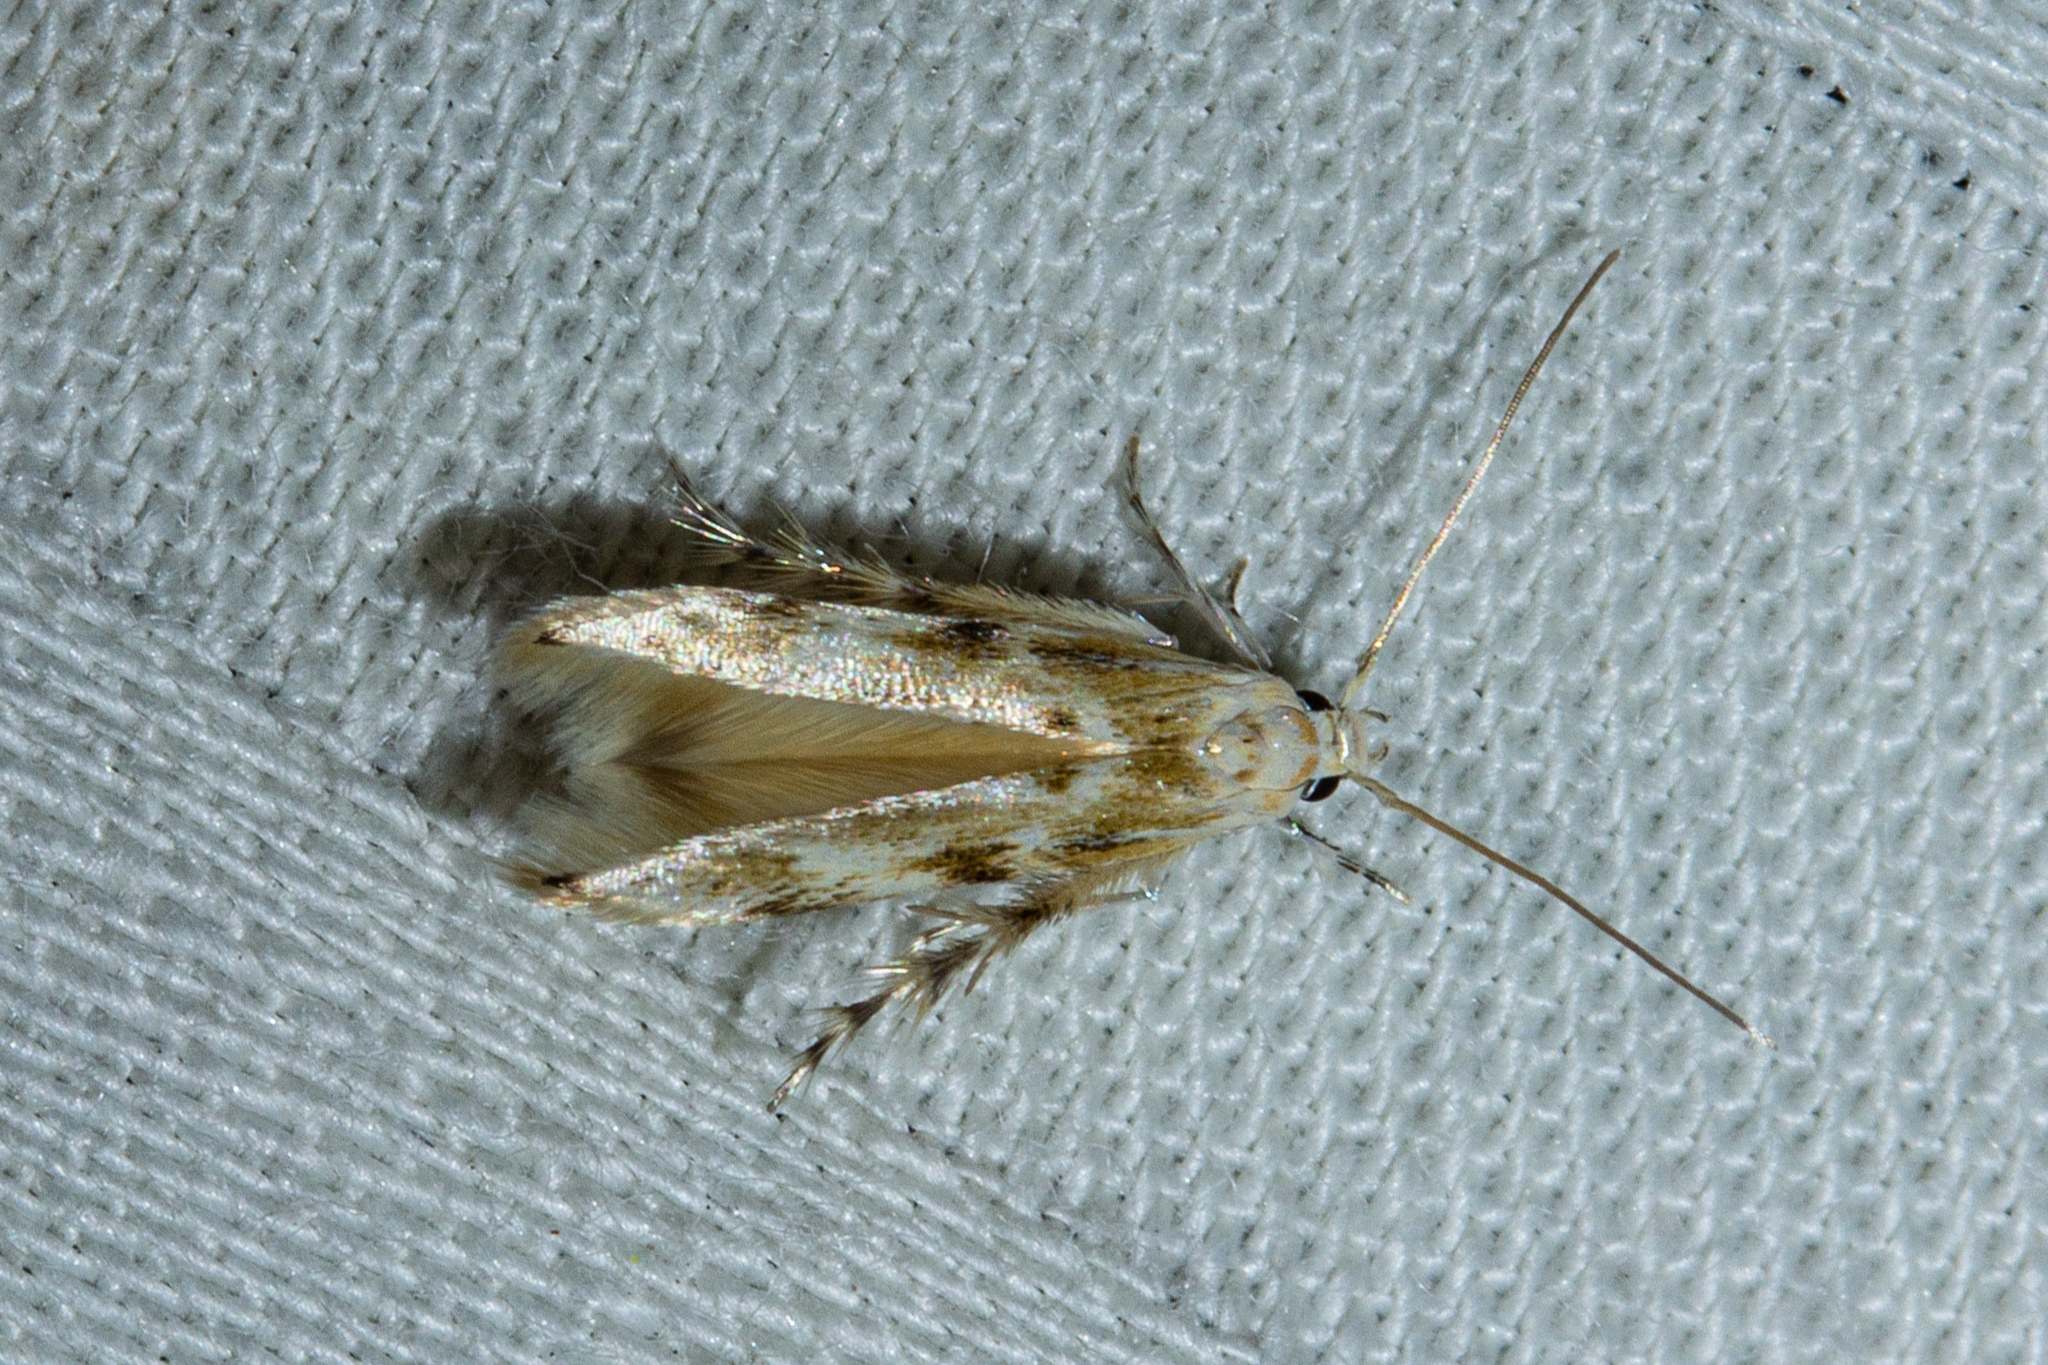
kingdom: Animalia
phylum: Arthropoda
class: Insecta
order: Lepidoptera
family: Stathmopodidae
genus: Calicotis
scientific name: Calicotis crucifera
